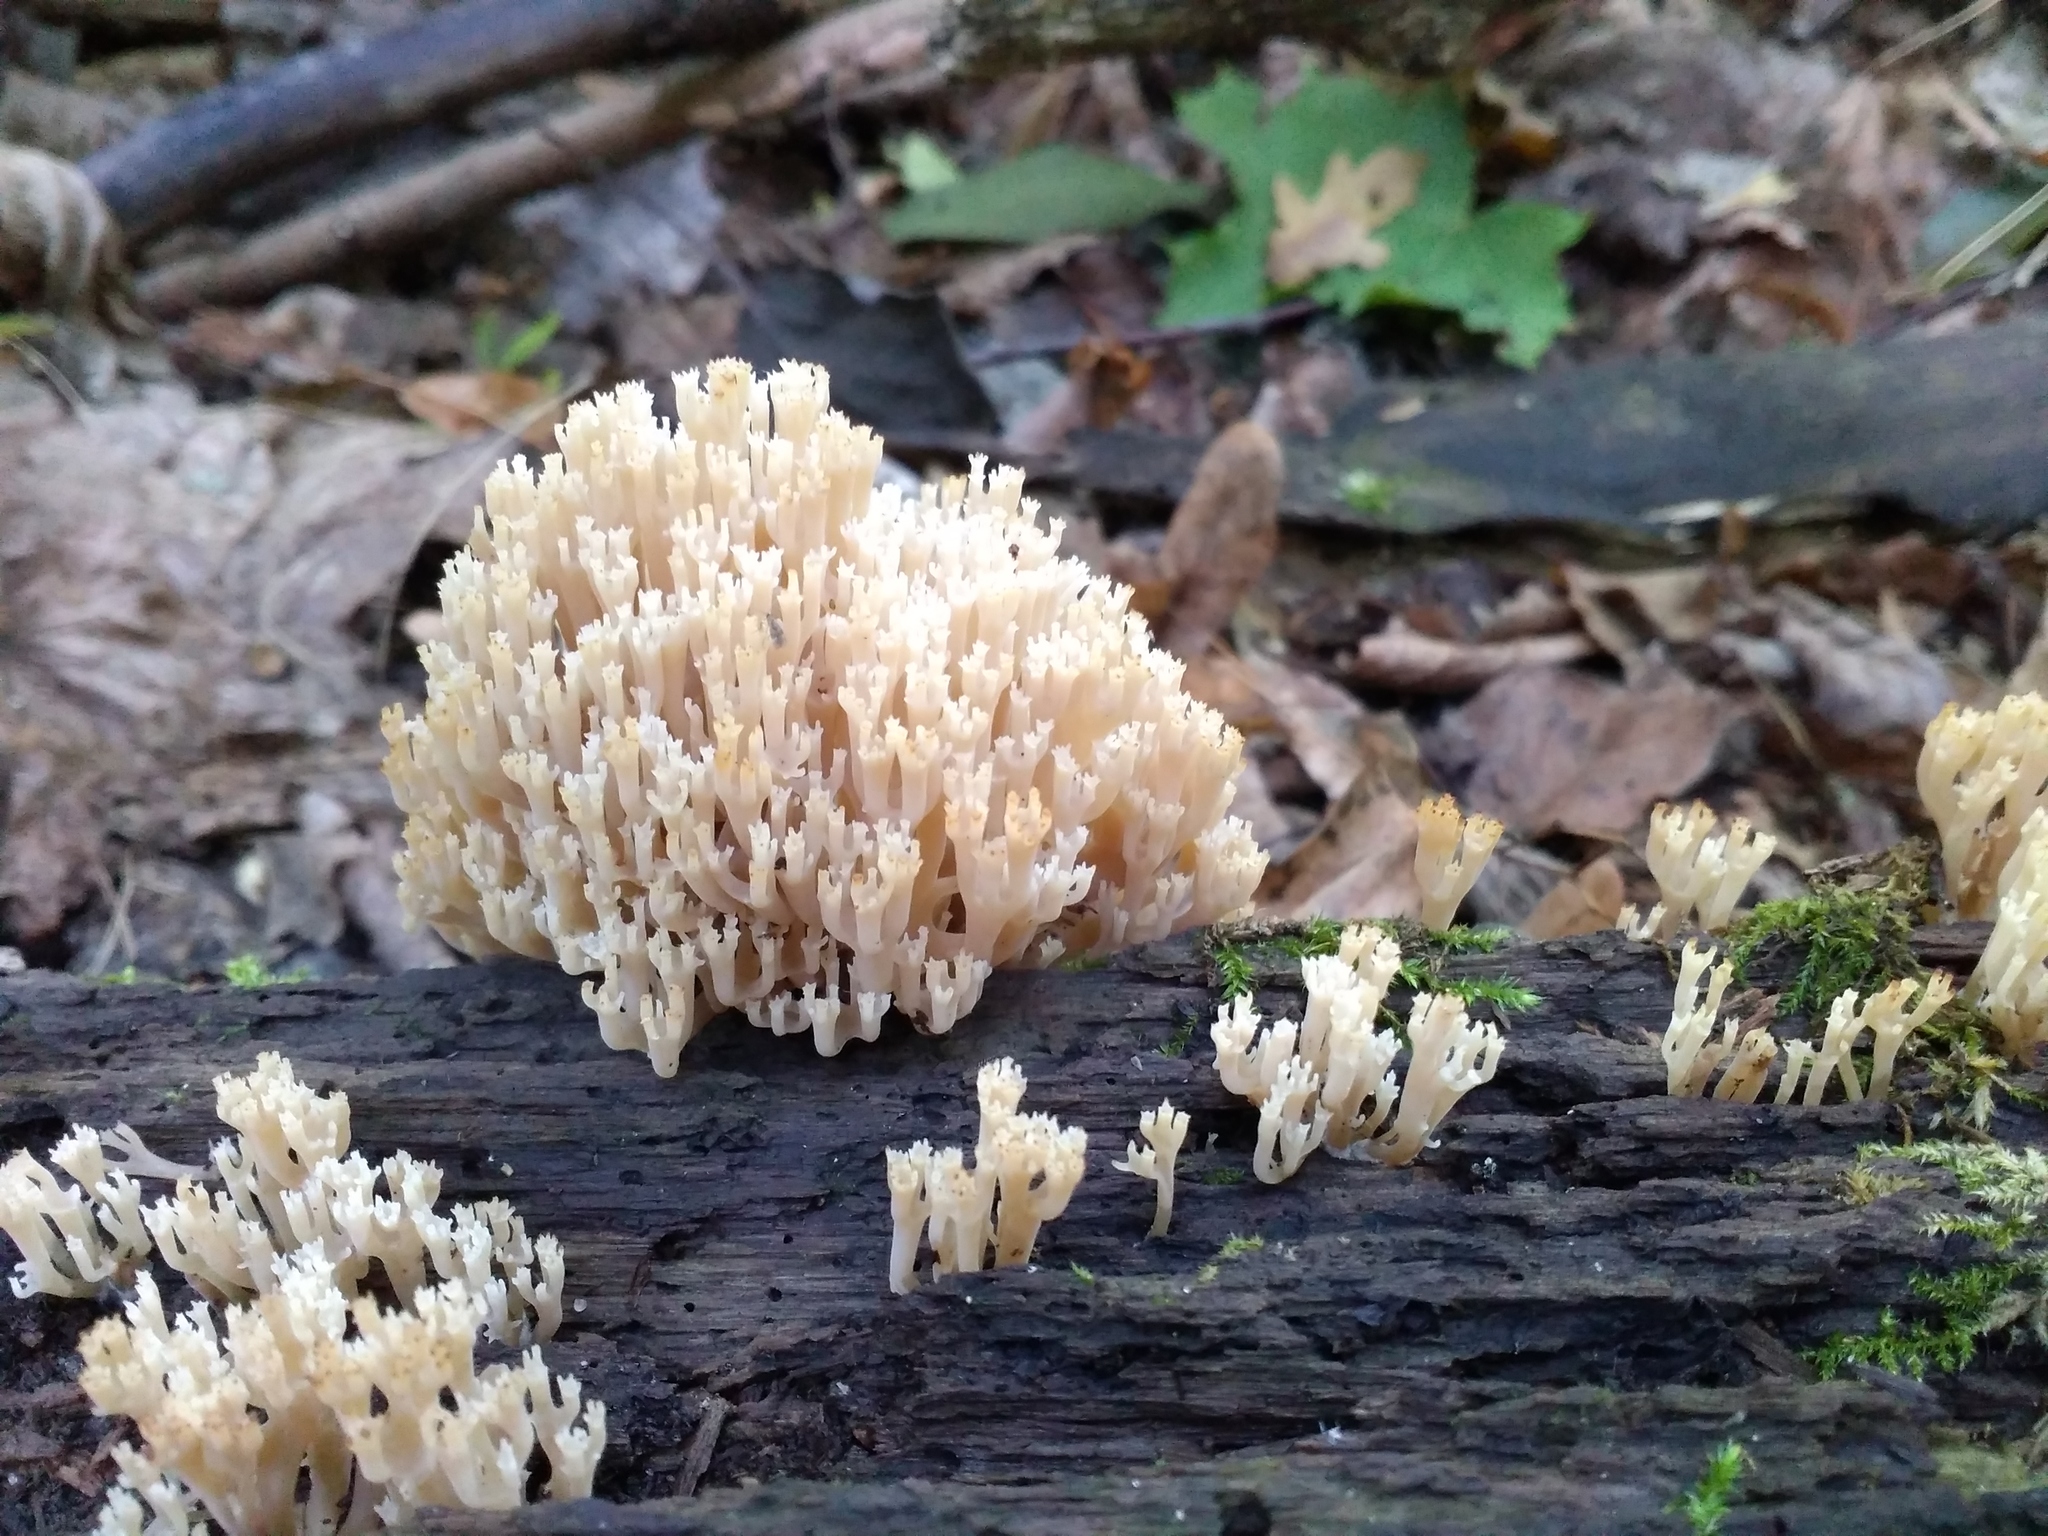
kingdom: Fungi
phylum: Basidiomycota
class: Agaricomycetes
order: Russulales
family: Auriscalpiaceae
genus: Artomyces
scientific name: Artomyces pyxidatus
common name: Crown-tipped coral fungus
